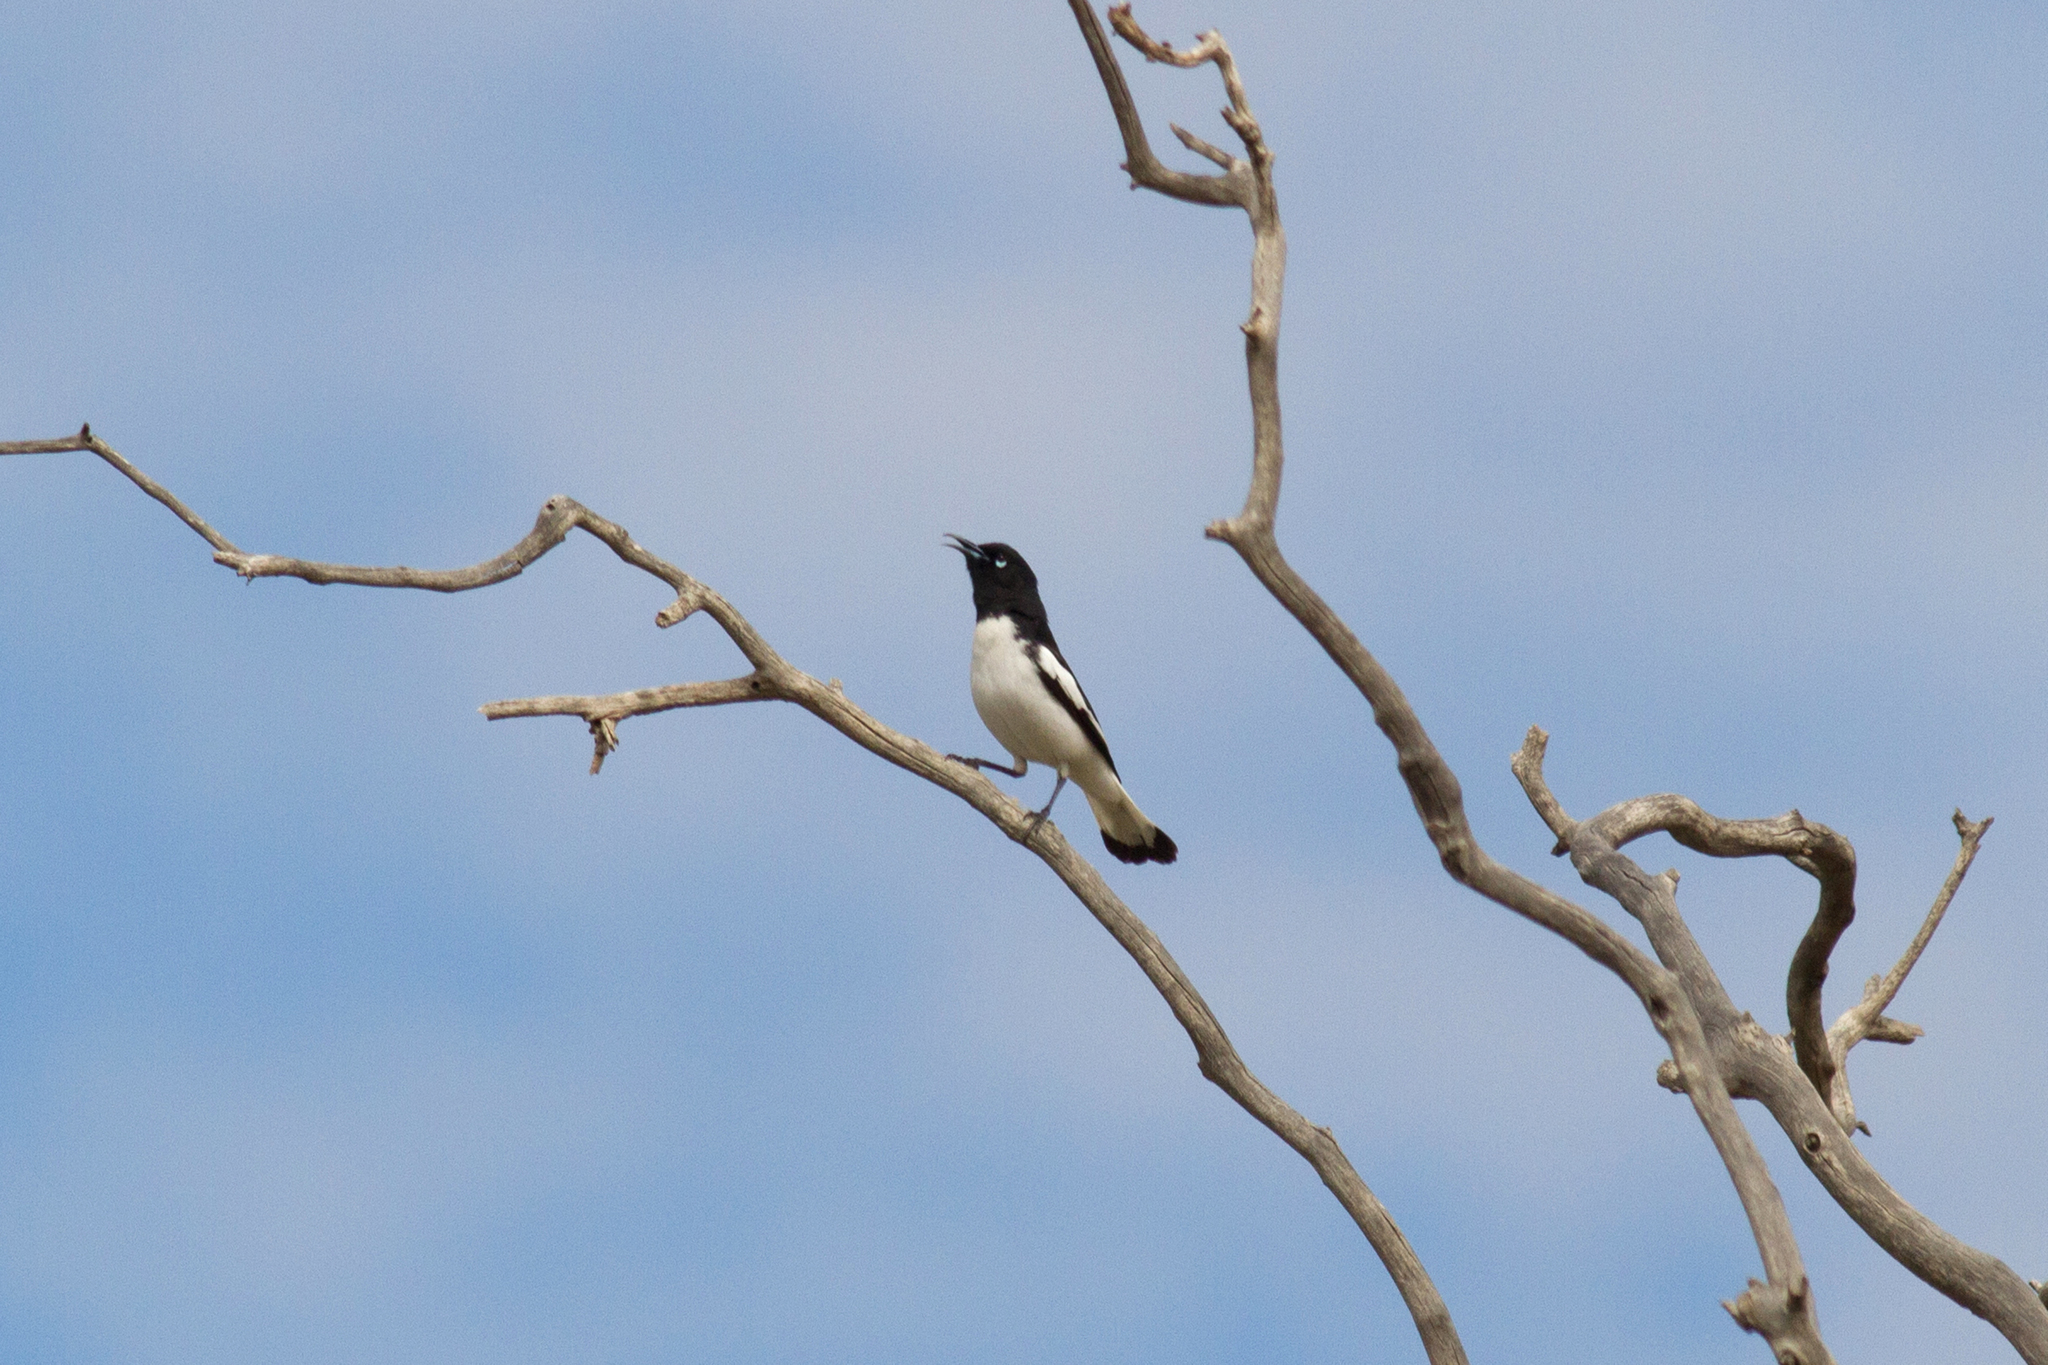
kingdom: Animalia
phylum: Chordata
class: Aves
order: Passeriformes
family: Meliphagidae
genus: Certhionyx
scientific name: Certhionyx variegatus
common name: Pied honeyeater
